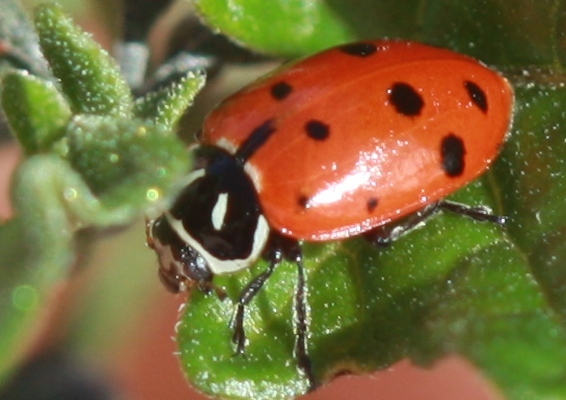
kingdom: Animalia
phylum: Arthropoda
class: Insecta
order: Coleoptera
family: Coccinellidae
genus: Hippodamia
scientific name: Hippodamia convergens
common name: Convergent lady beetle
